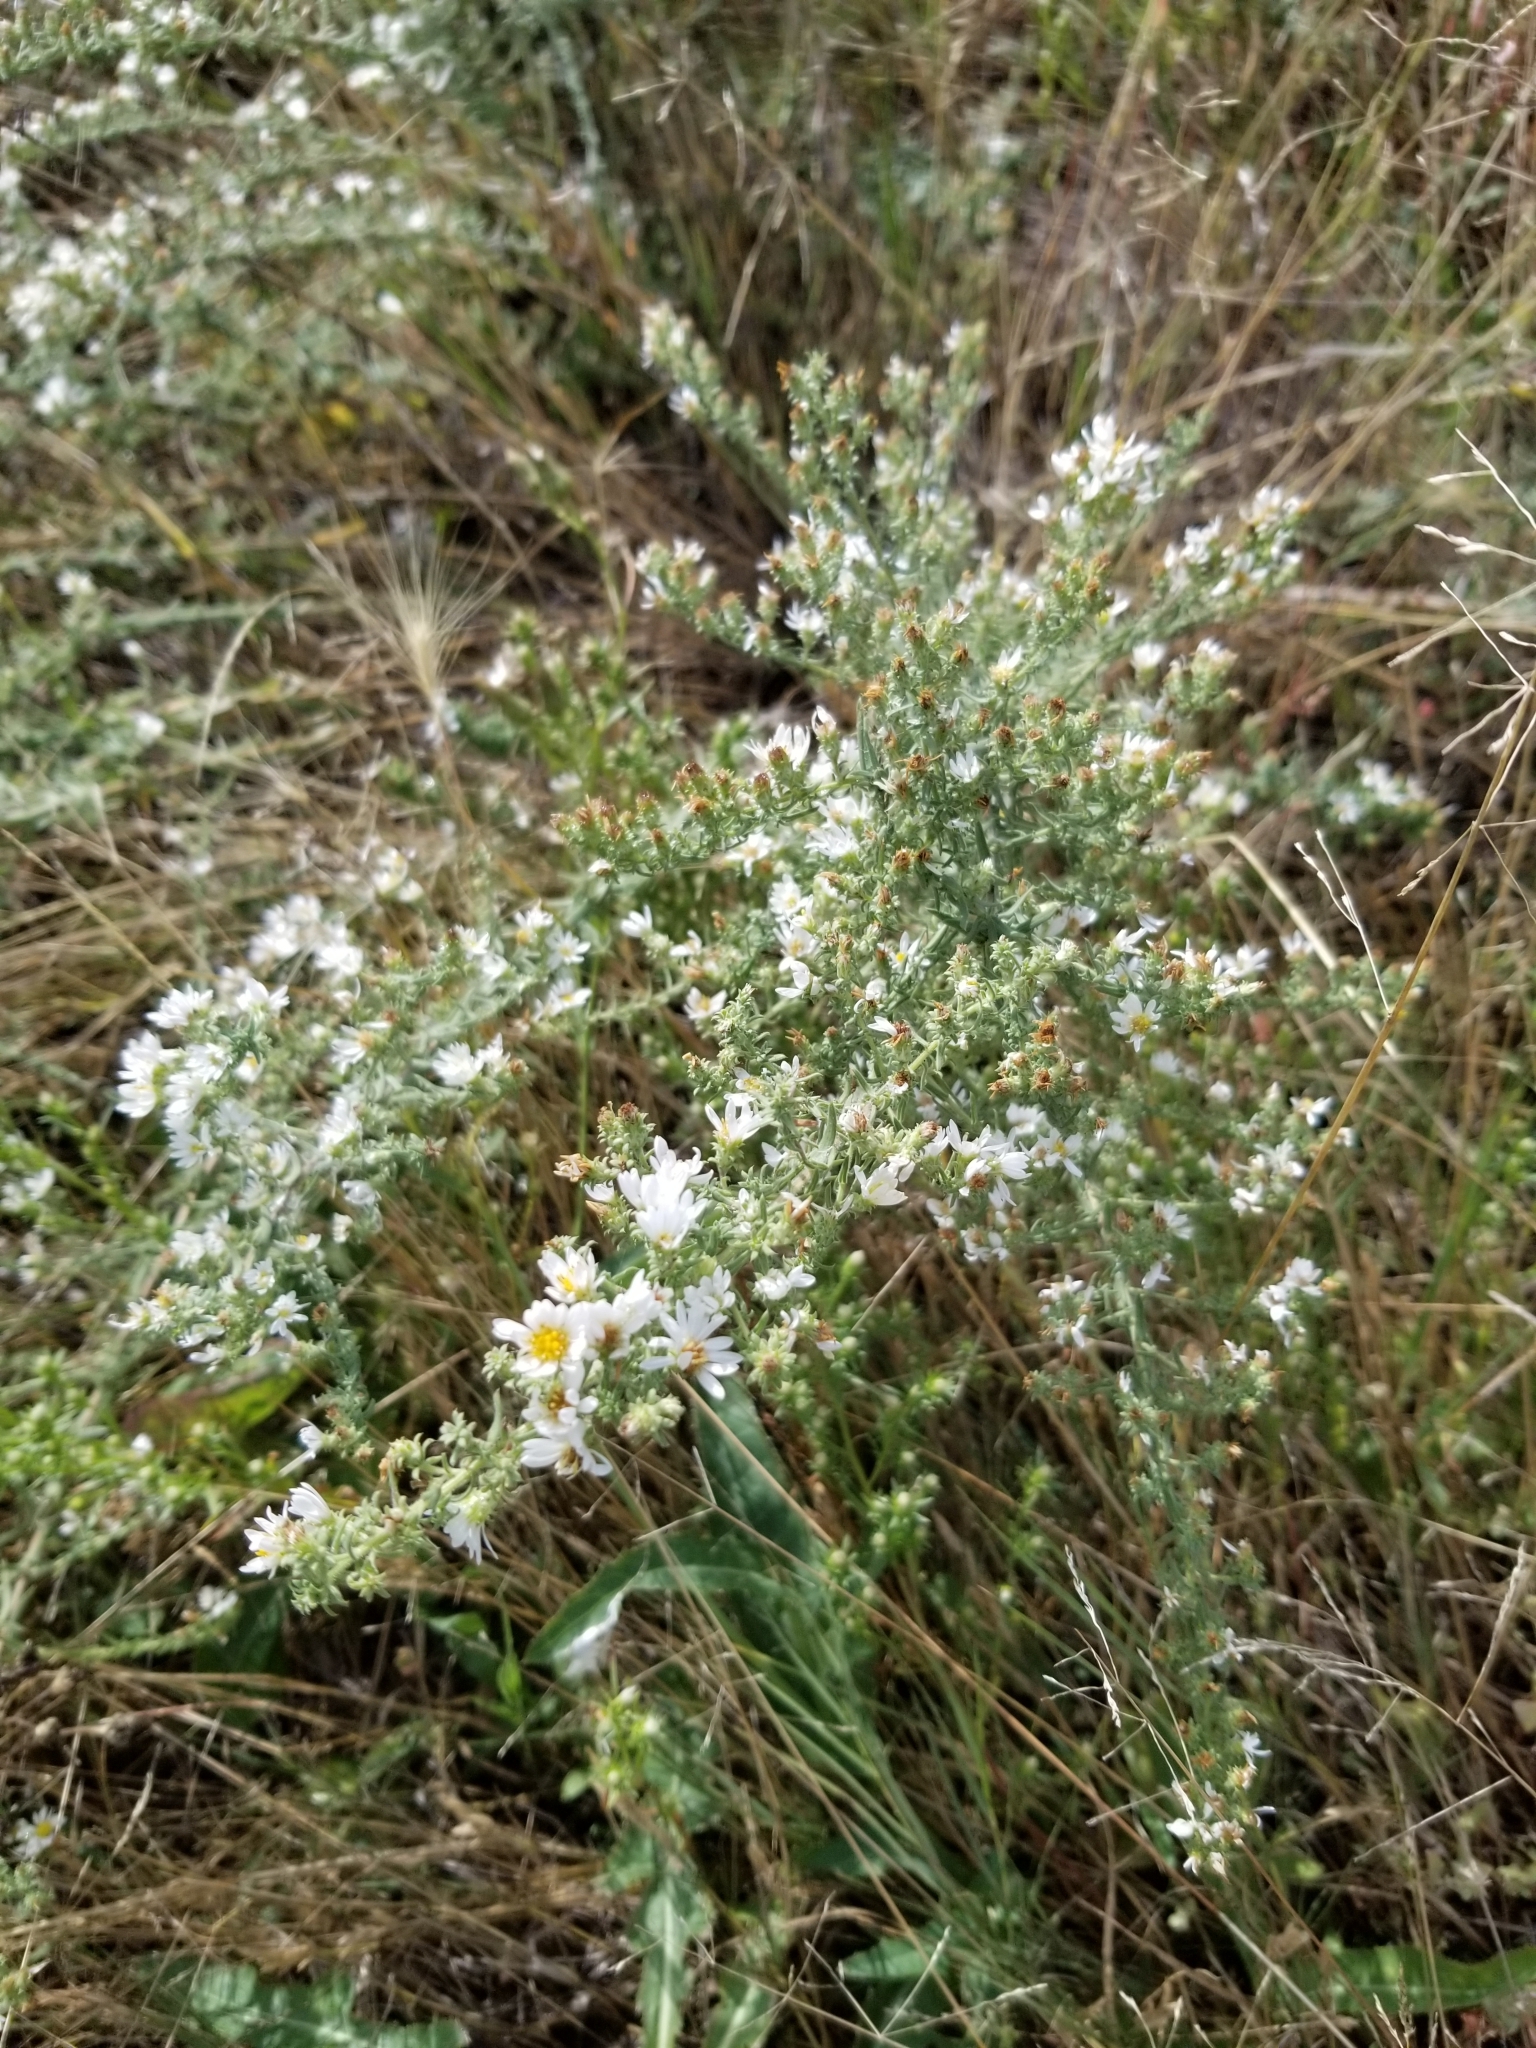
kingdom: Plantae
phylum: Tracheophyta
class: Magnoliopsida
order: Asterales
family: Asteraceae
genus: Symphyotrichum
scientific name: Symphyotrichum ericoides
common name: Heath aster
